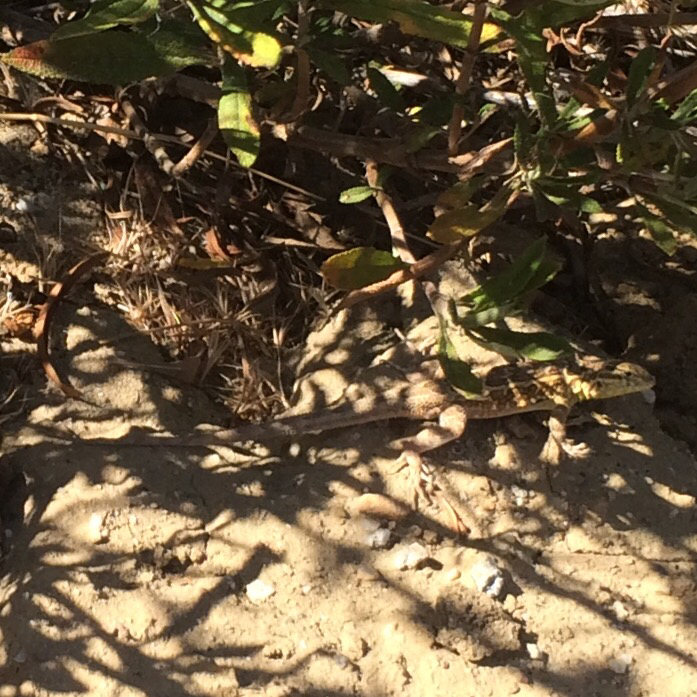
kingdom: Animalia
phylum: Chordata
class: Squamata
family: Phrynosomatidae
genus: Uta
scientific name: Uta stansburiana
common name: Side-blotched lizard
